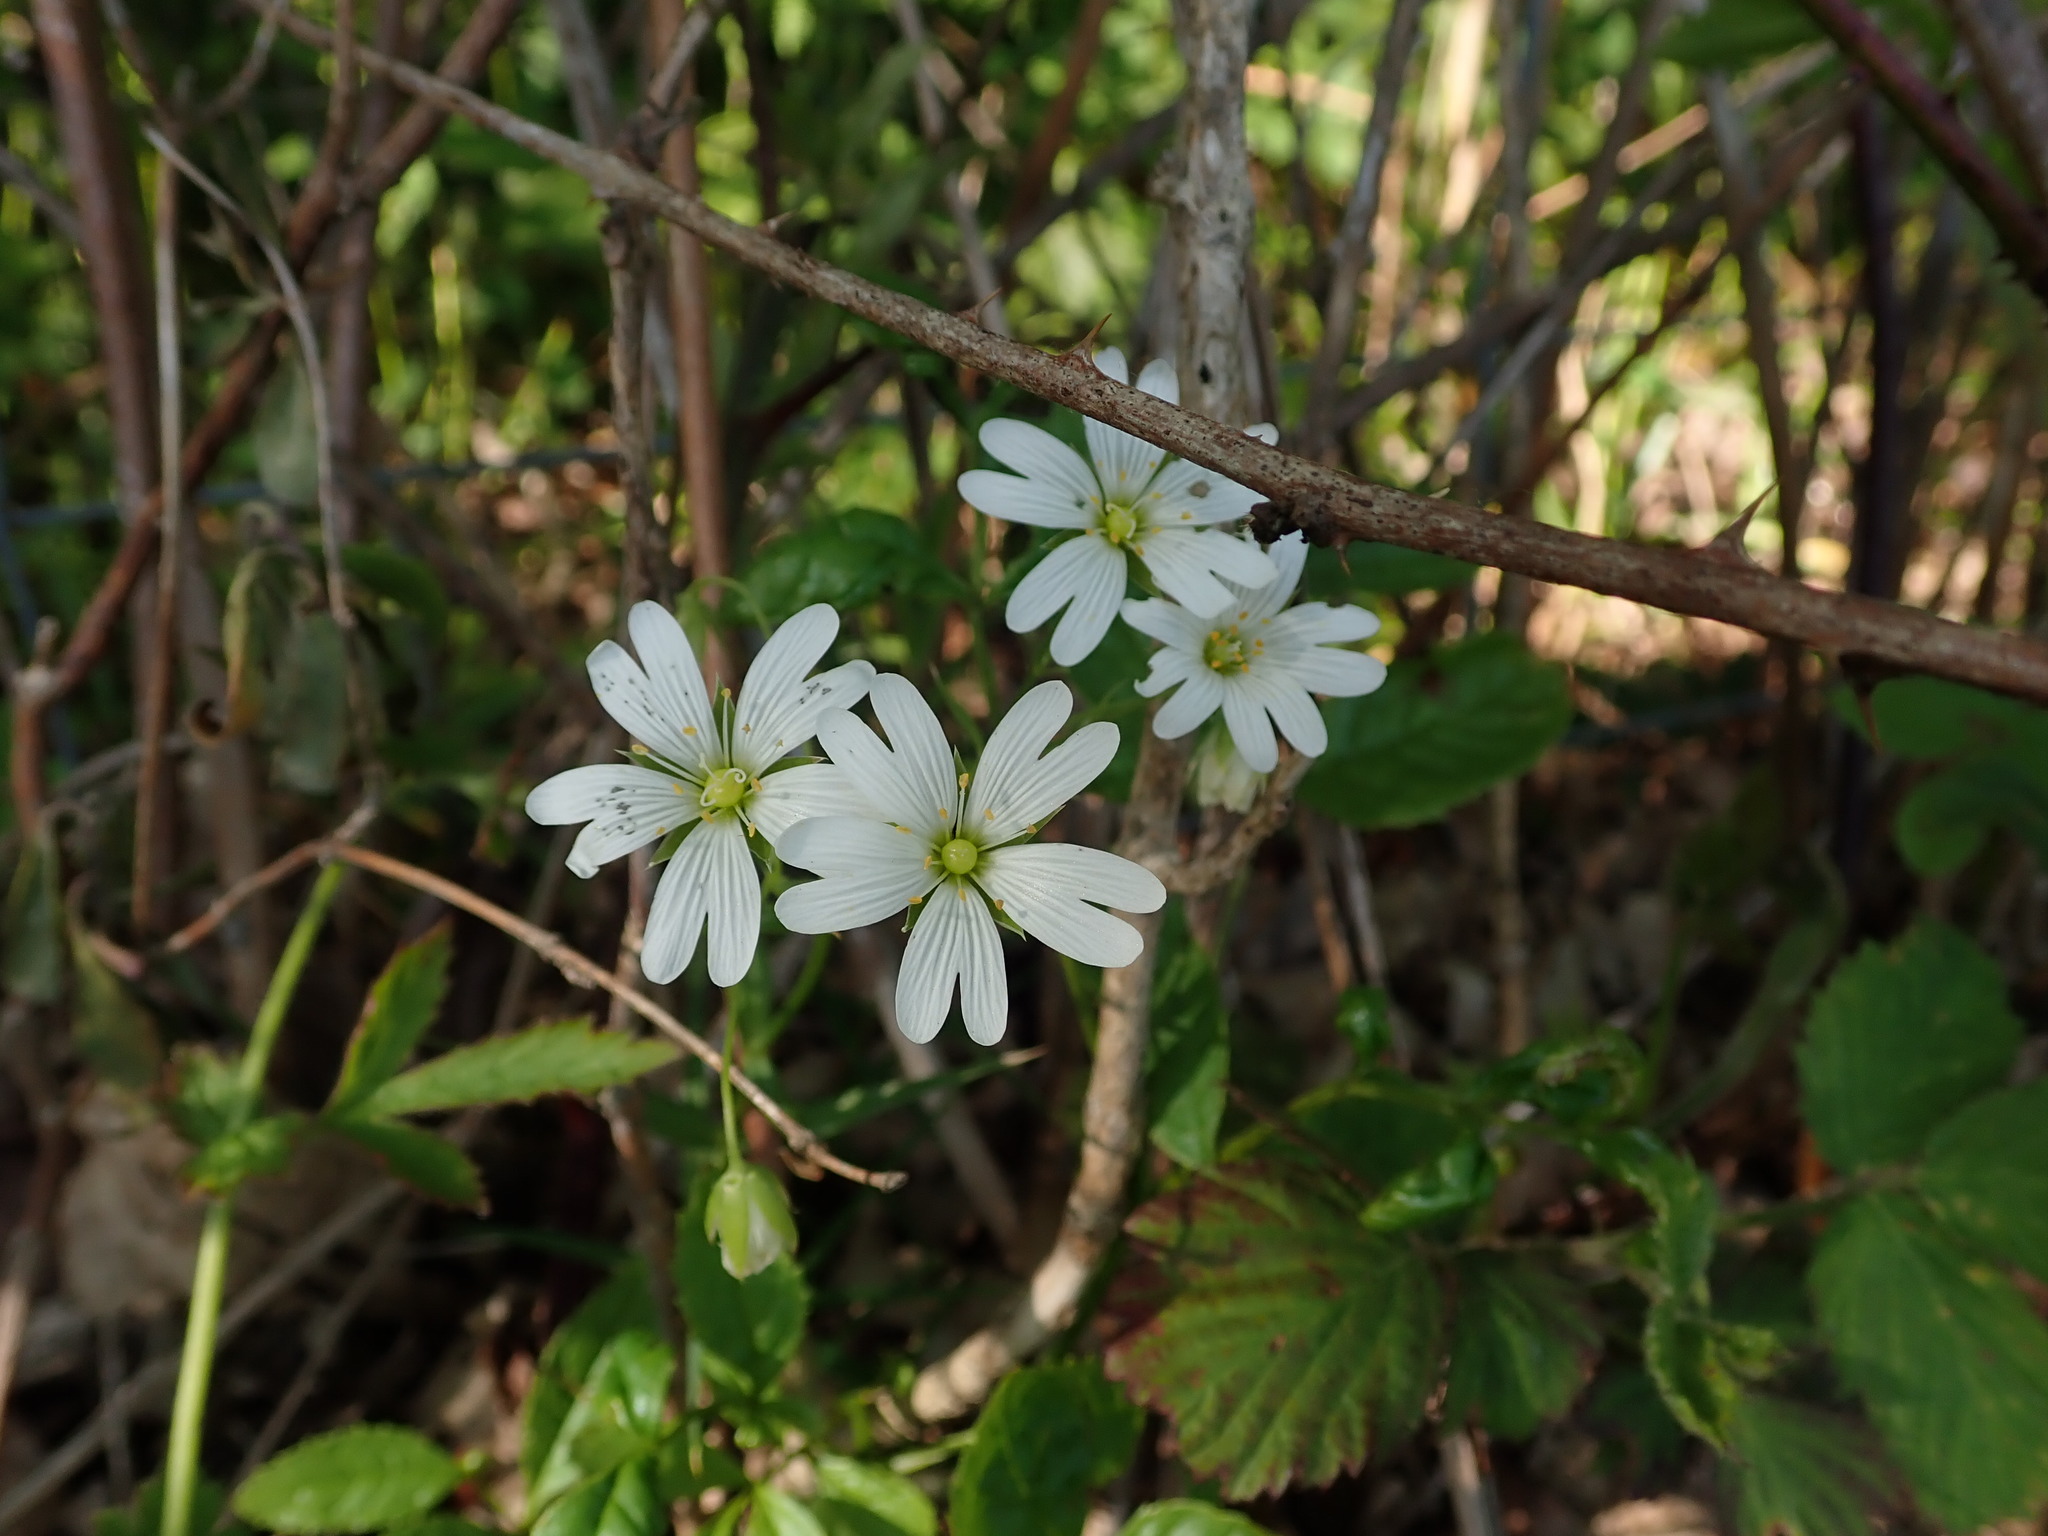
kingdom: Plantae
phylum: Tracheophyta
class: Magnoliopsida
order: Caryophyllales
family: Caryophyllaceae
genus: Rabelera
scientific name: Rabelera holostea
